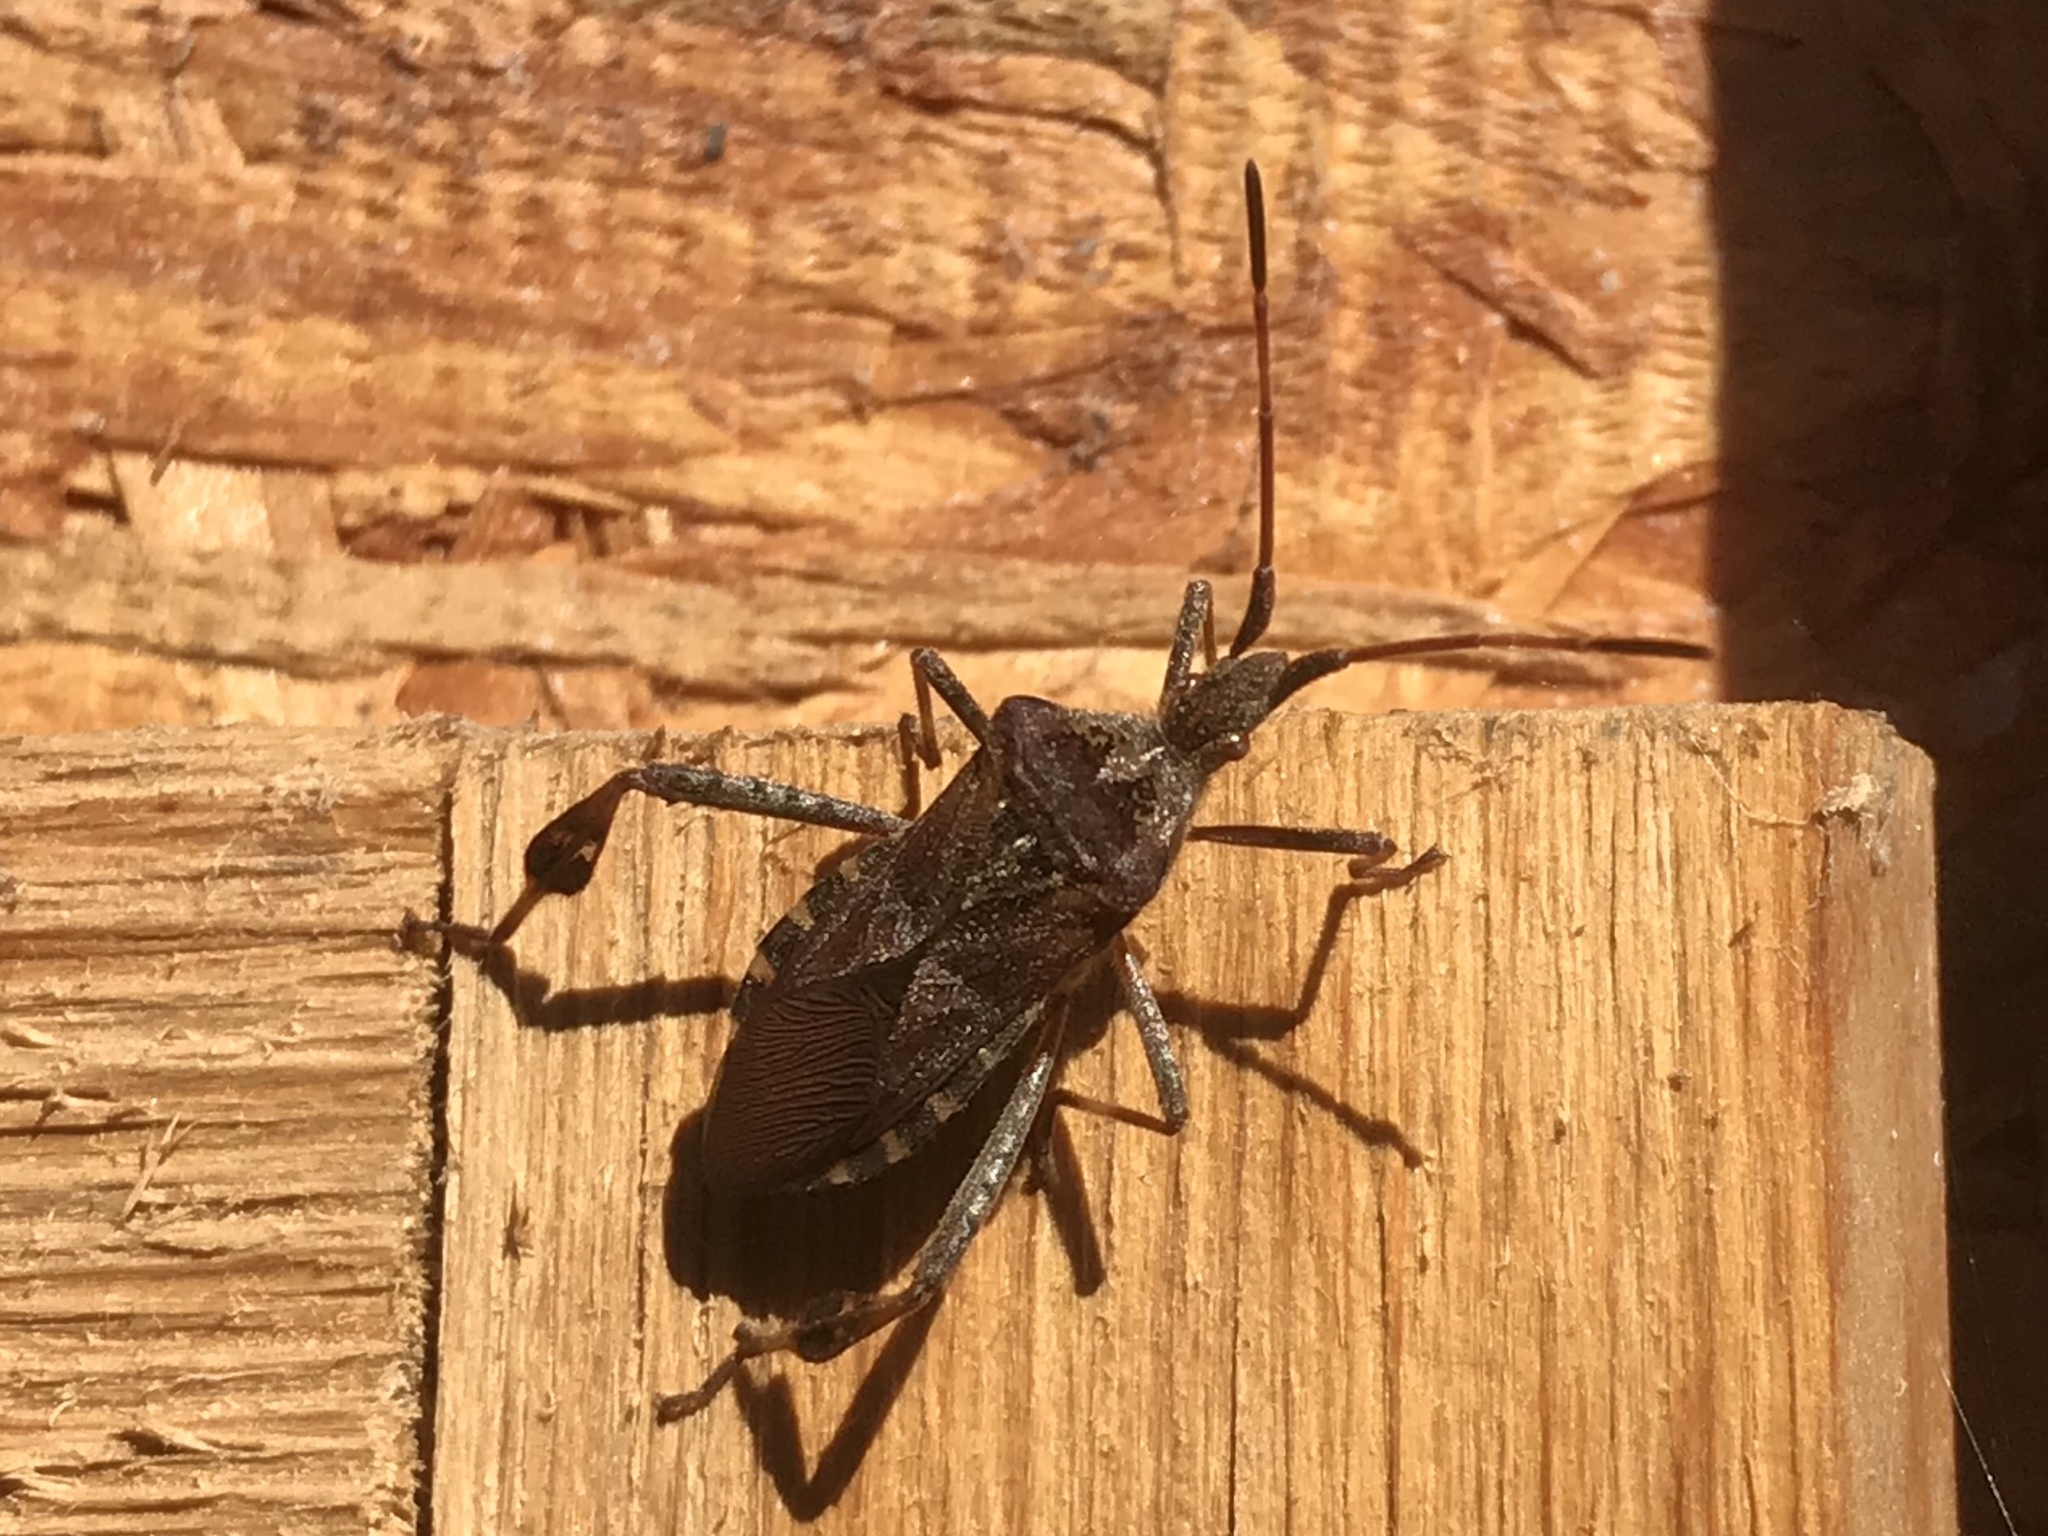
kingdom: Animalia
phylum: Arthropoda
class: Insecta
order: Hemiptera
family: Coreidae
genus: Leptoglossus
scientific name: Leptoglossus occidentalis
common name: Western conifer-seed bug
